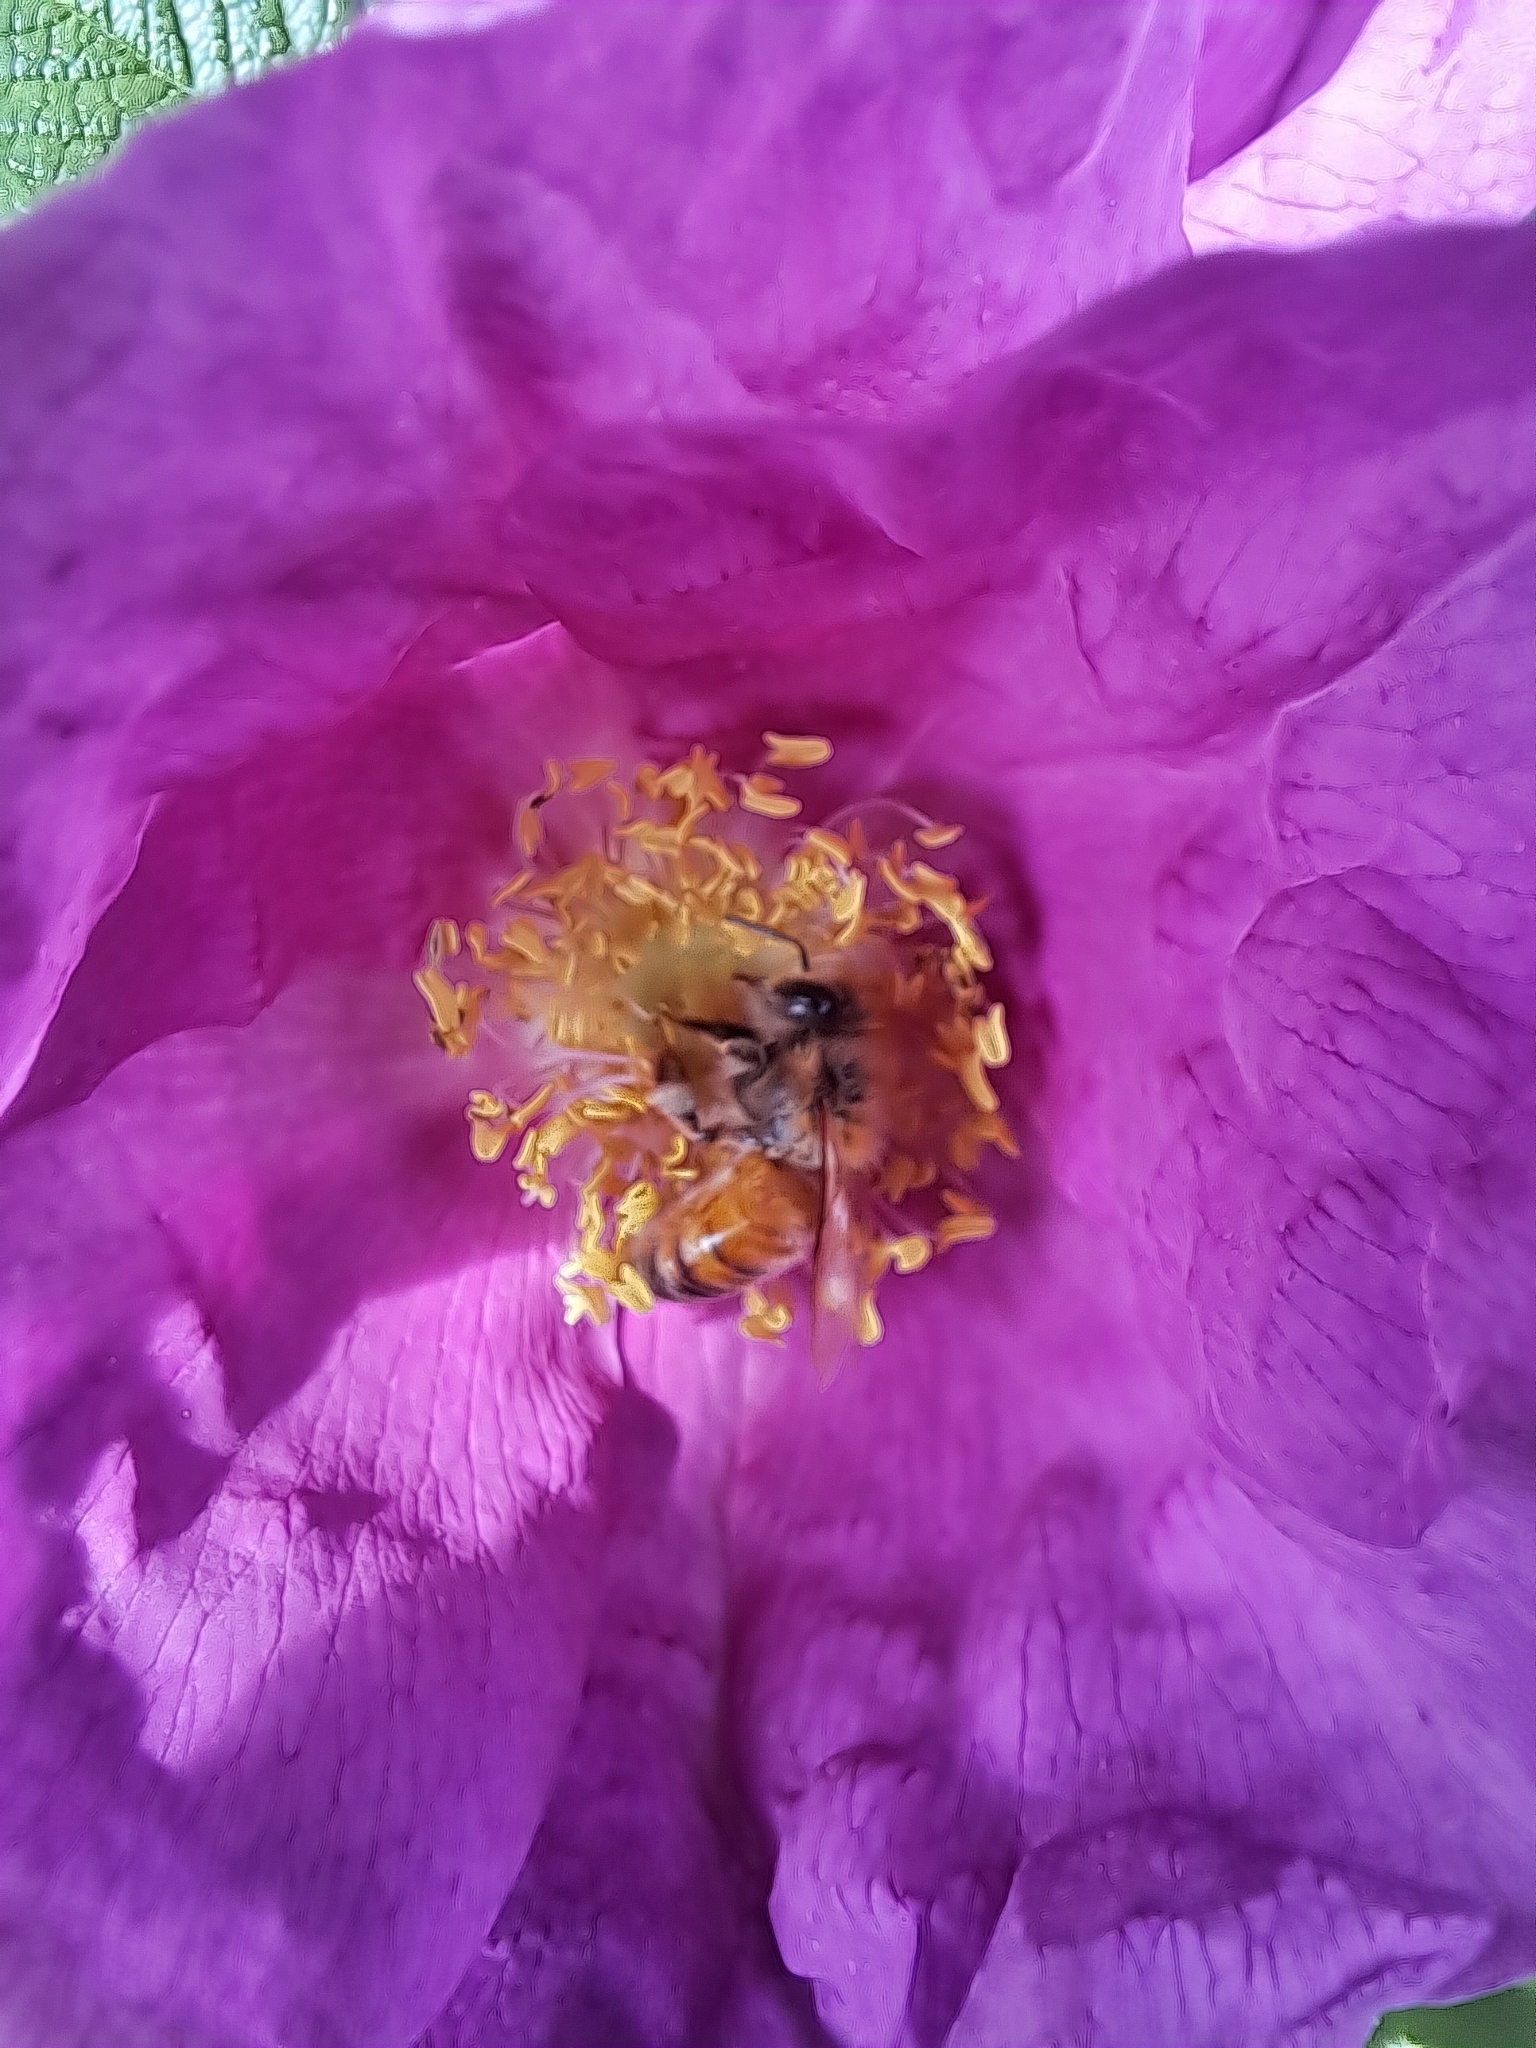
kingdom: Animalia
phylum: Arthropoda
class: Insecta
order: Hymenoptera
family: Apidae
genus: Apis
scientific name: Apis mellifera
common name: Honey bee
